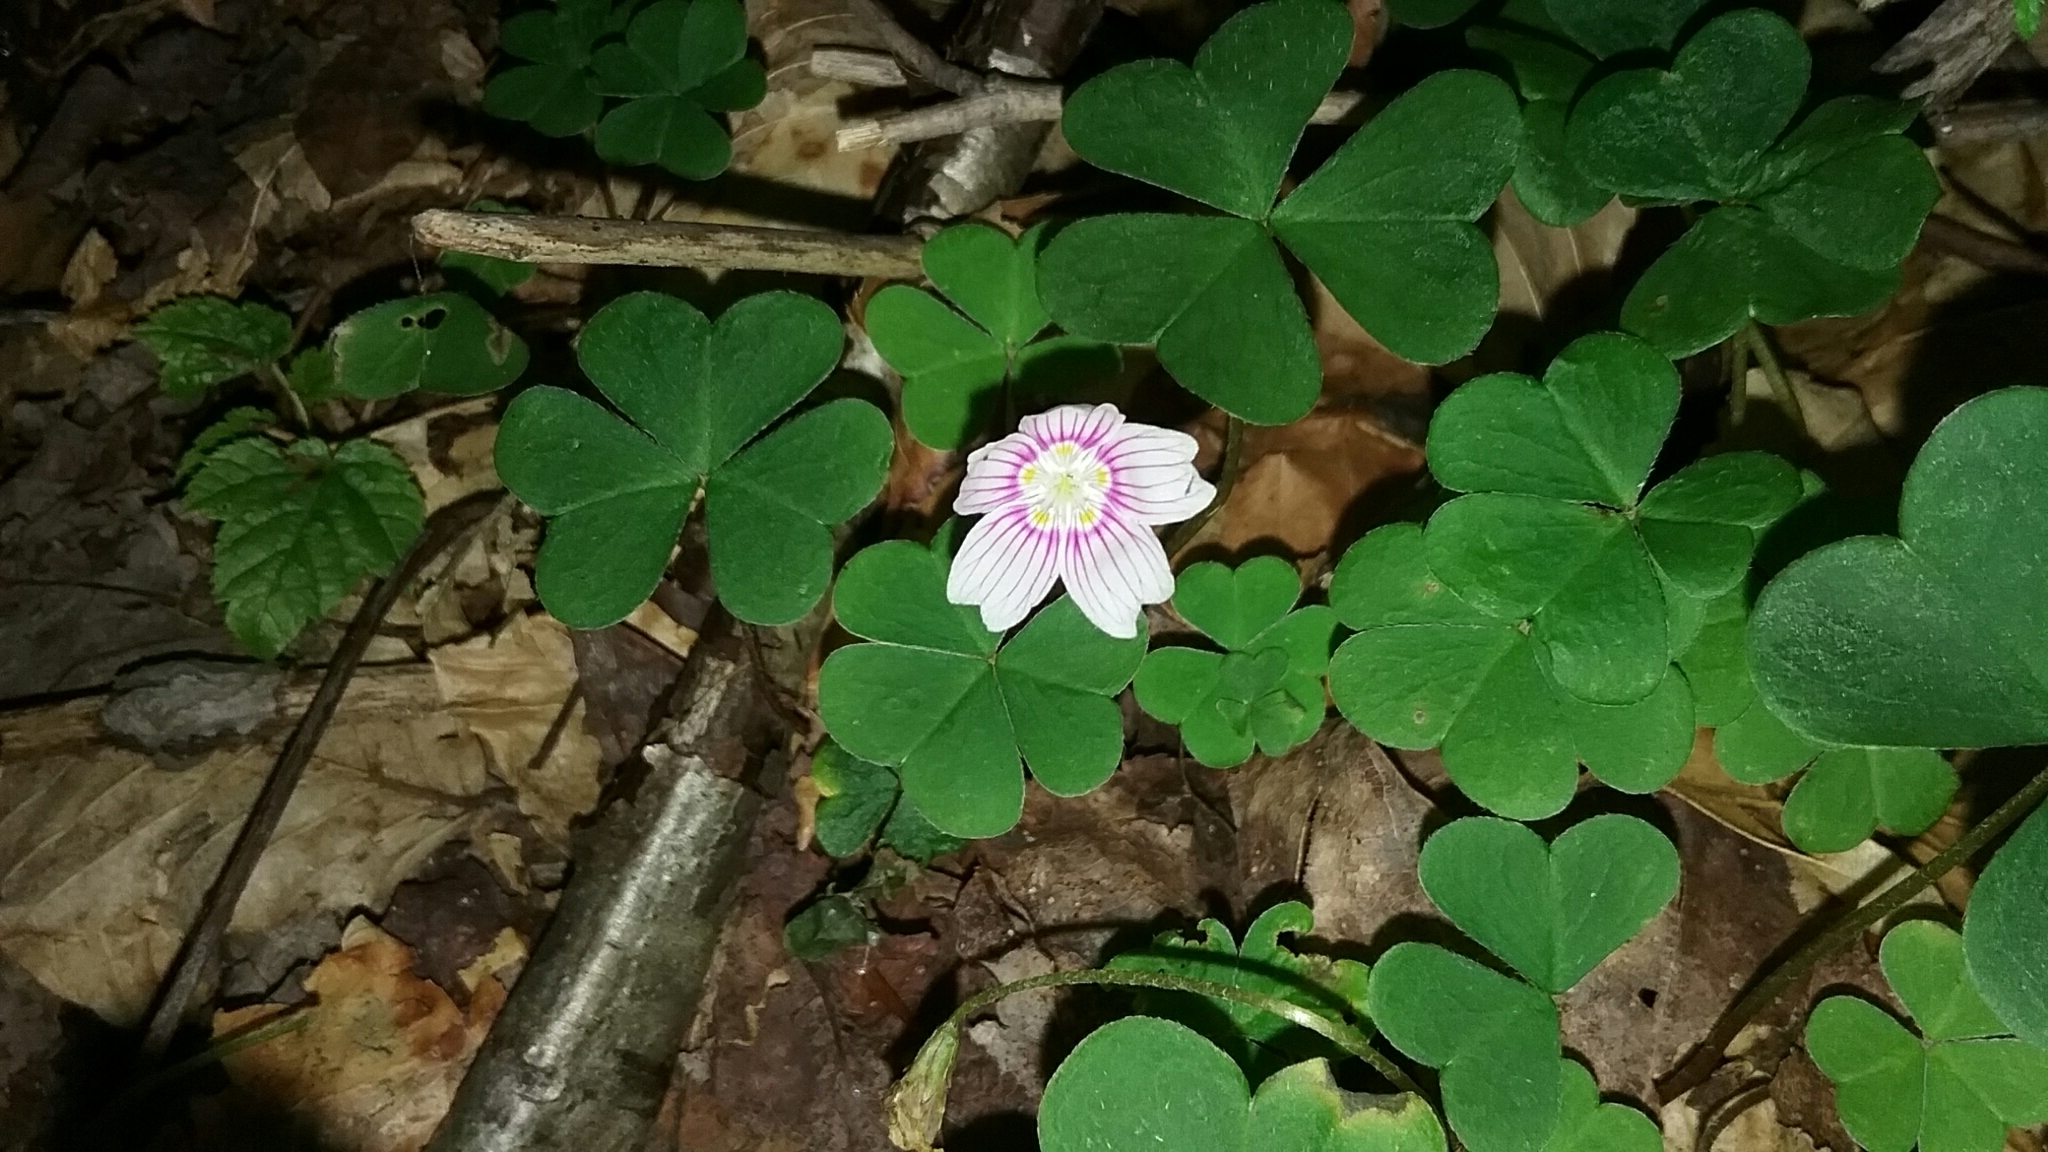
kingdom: Plantae
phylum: Tracheophyta
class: Magnoliopsida
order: Oxalidales
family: Oxalidaceae
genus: Oxalis
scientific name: Oxalis montana
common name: American wood-sorrel
